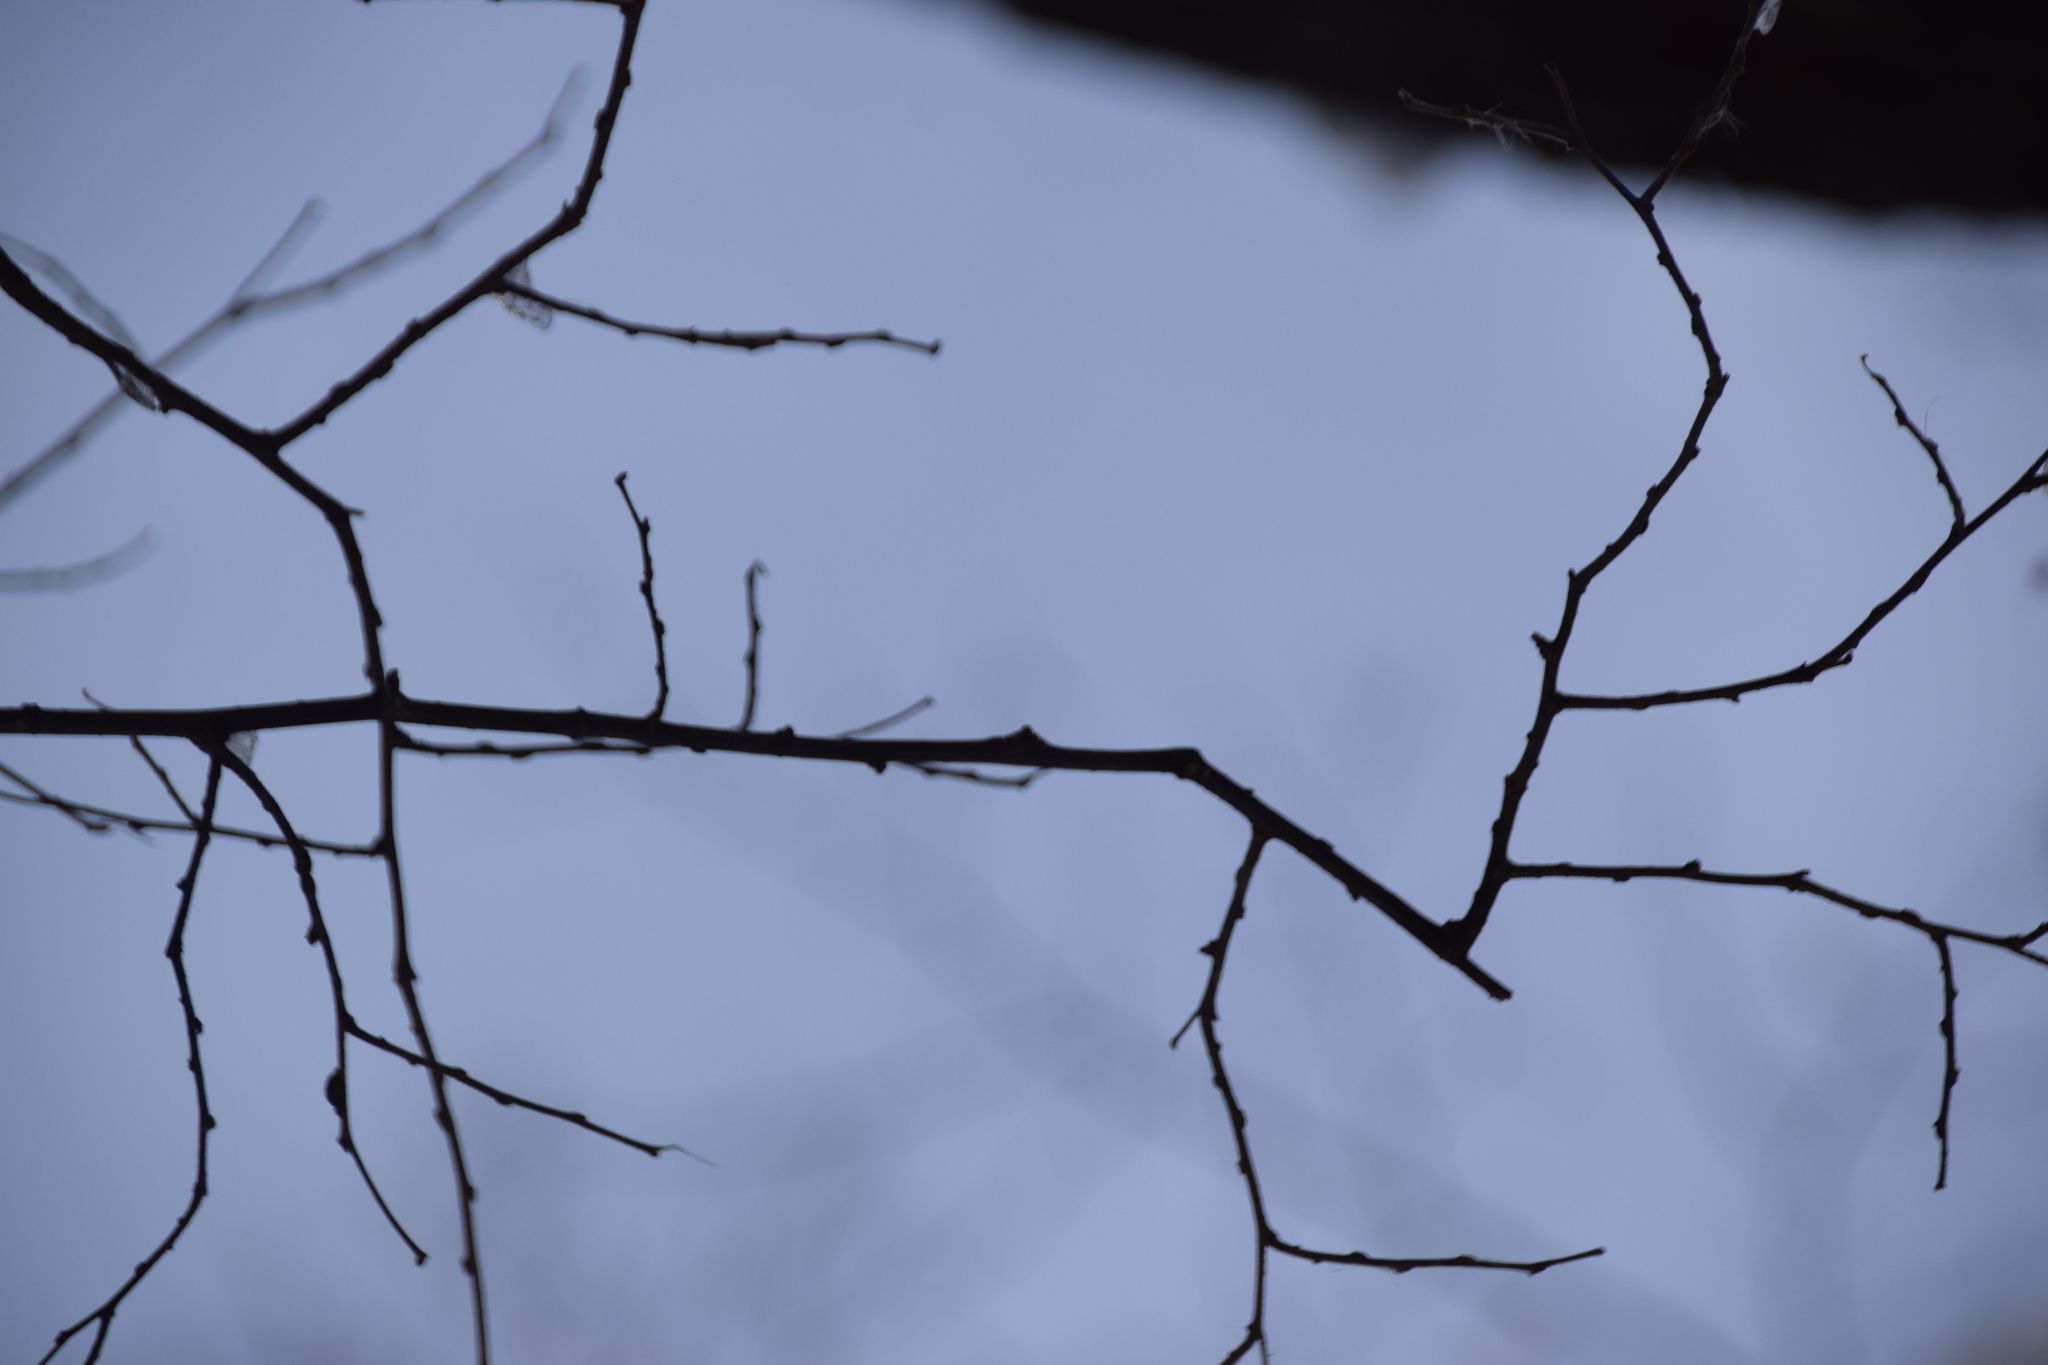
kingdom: Plantae
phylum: Tracheophyta
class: Magnoliopsida
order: Rosales
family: Cannabaceae
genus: Celtis
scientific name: Celtis occidentalis
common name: Common hackberry
